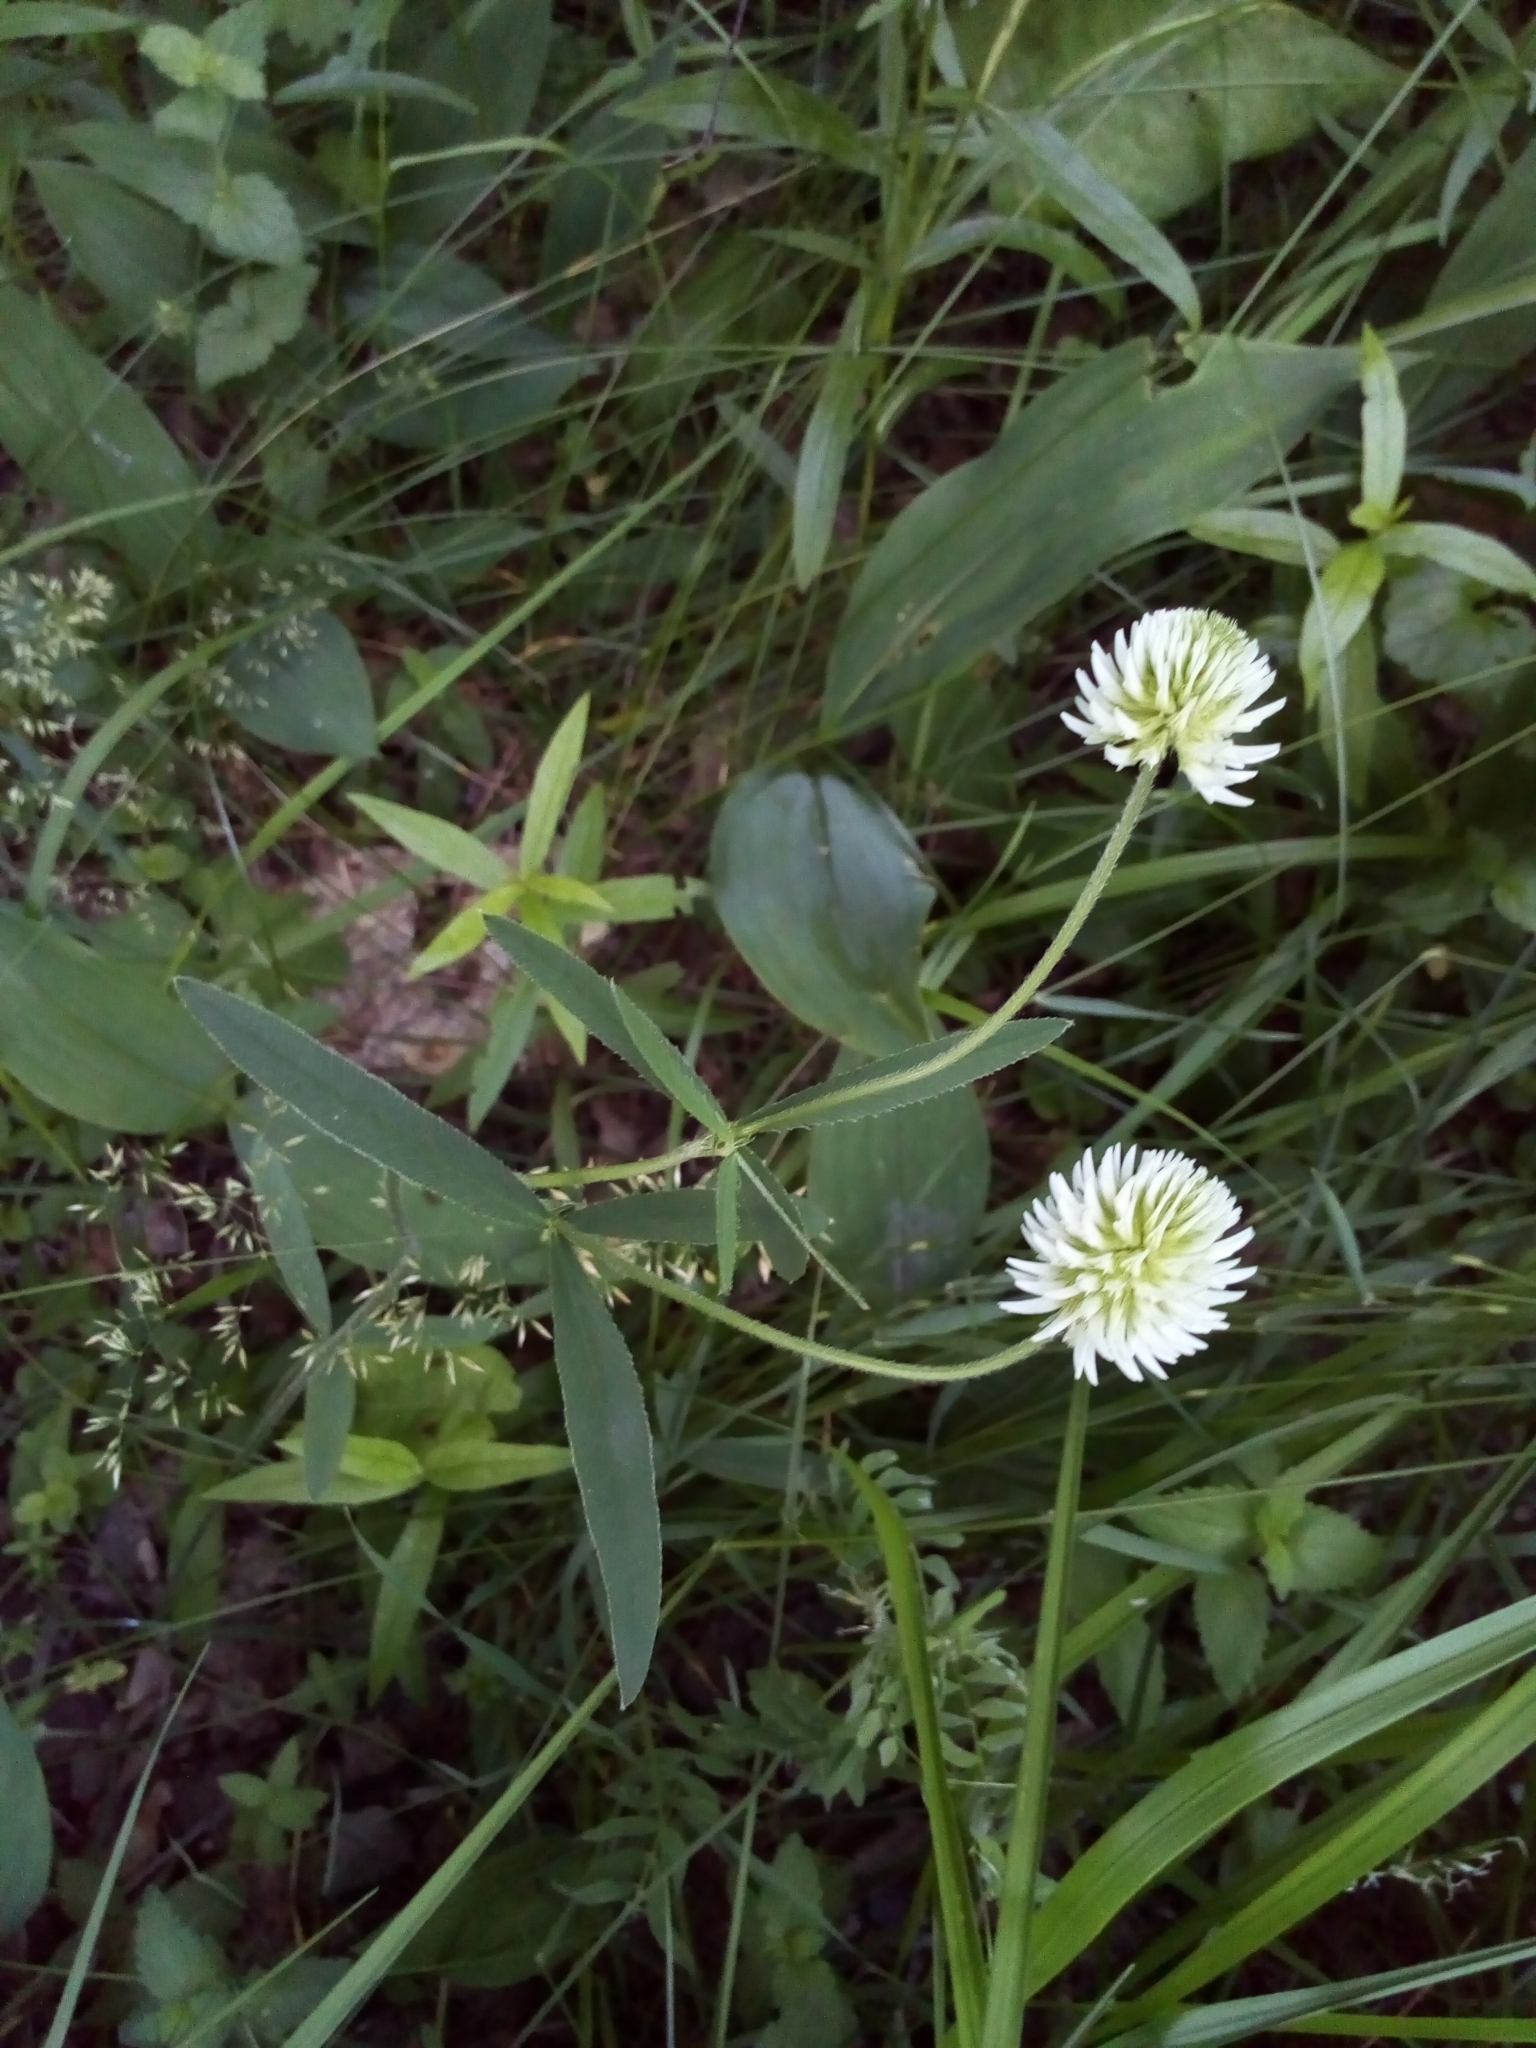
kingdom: Plantae
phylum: Tracheophyta
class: Magnoliopsida
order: Fabales
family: Fabaceae
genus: Trifolium
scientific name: Trifolium montanum
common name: Mountain clover
